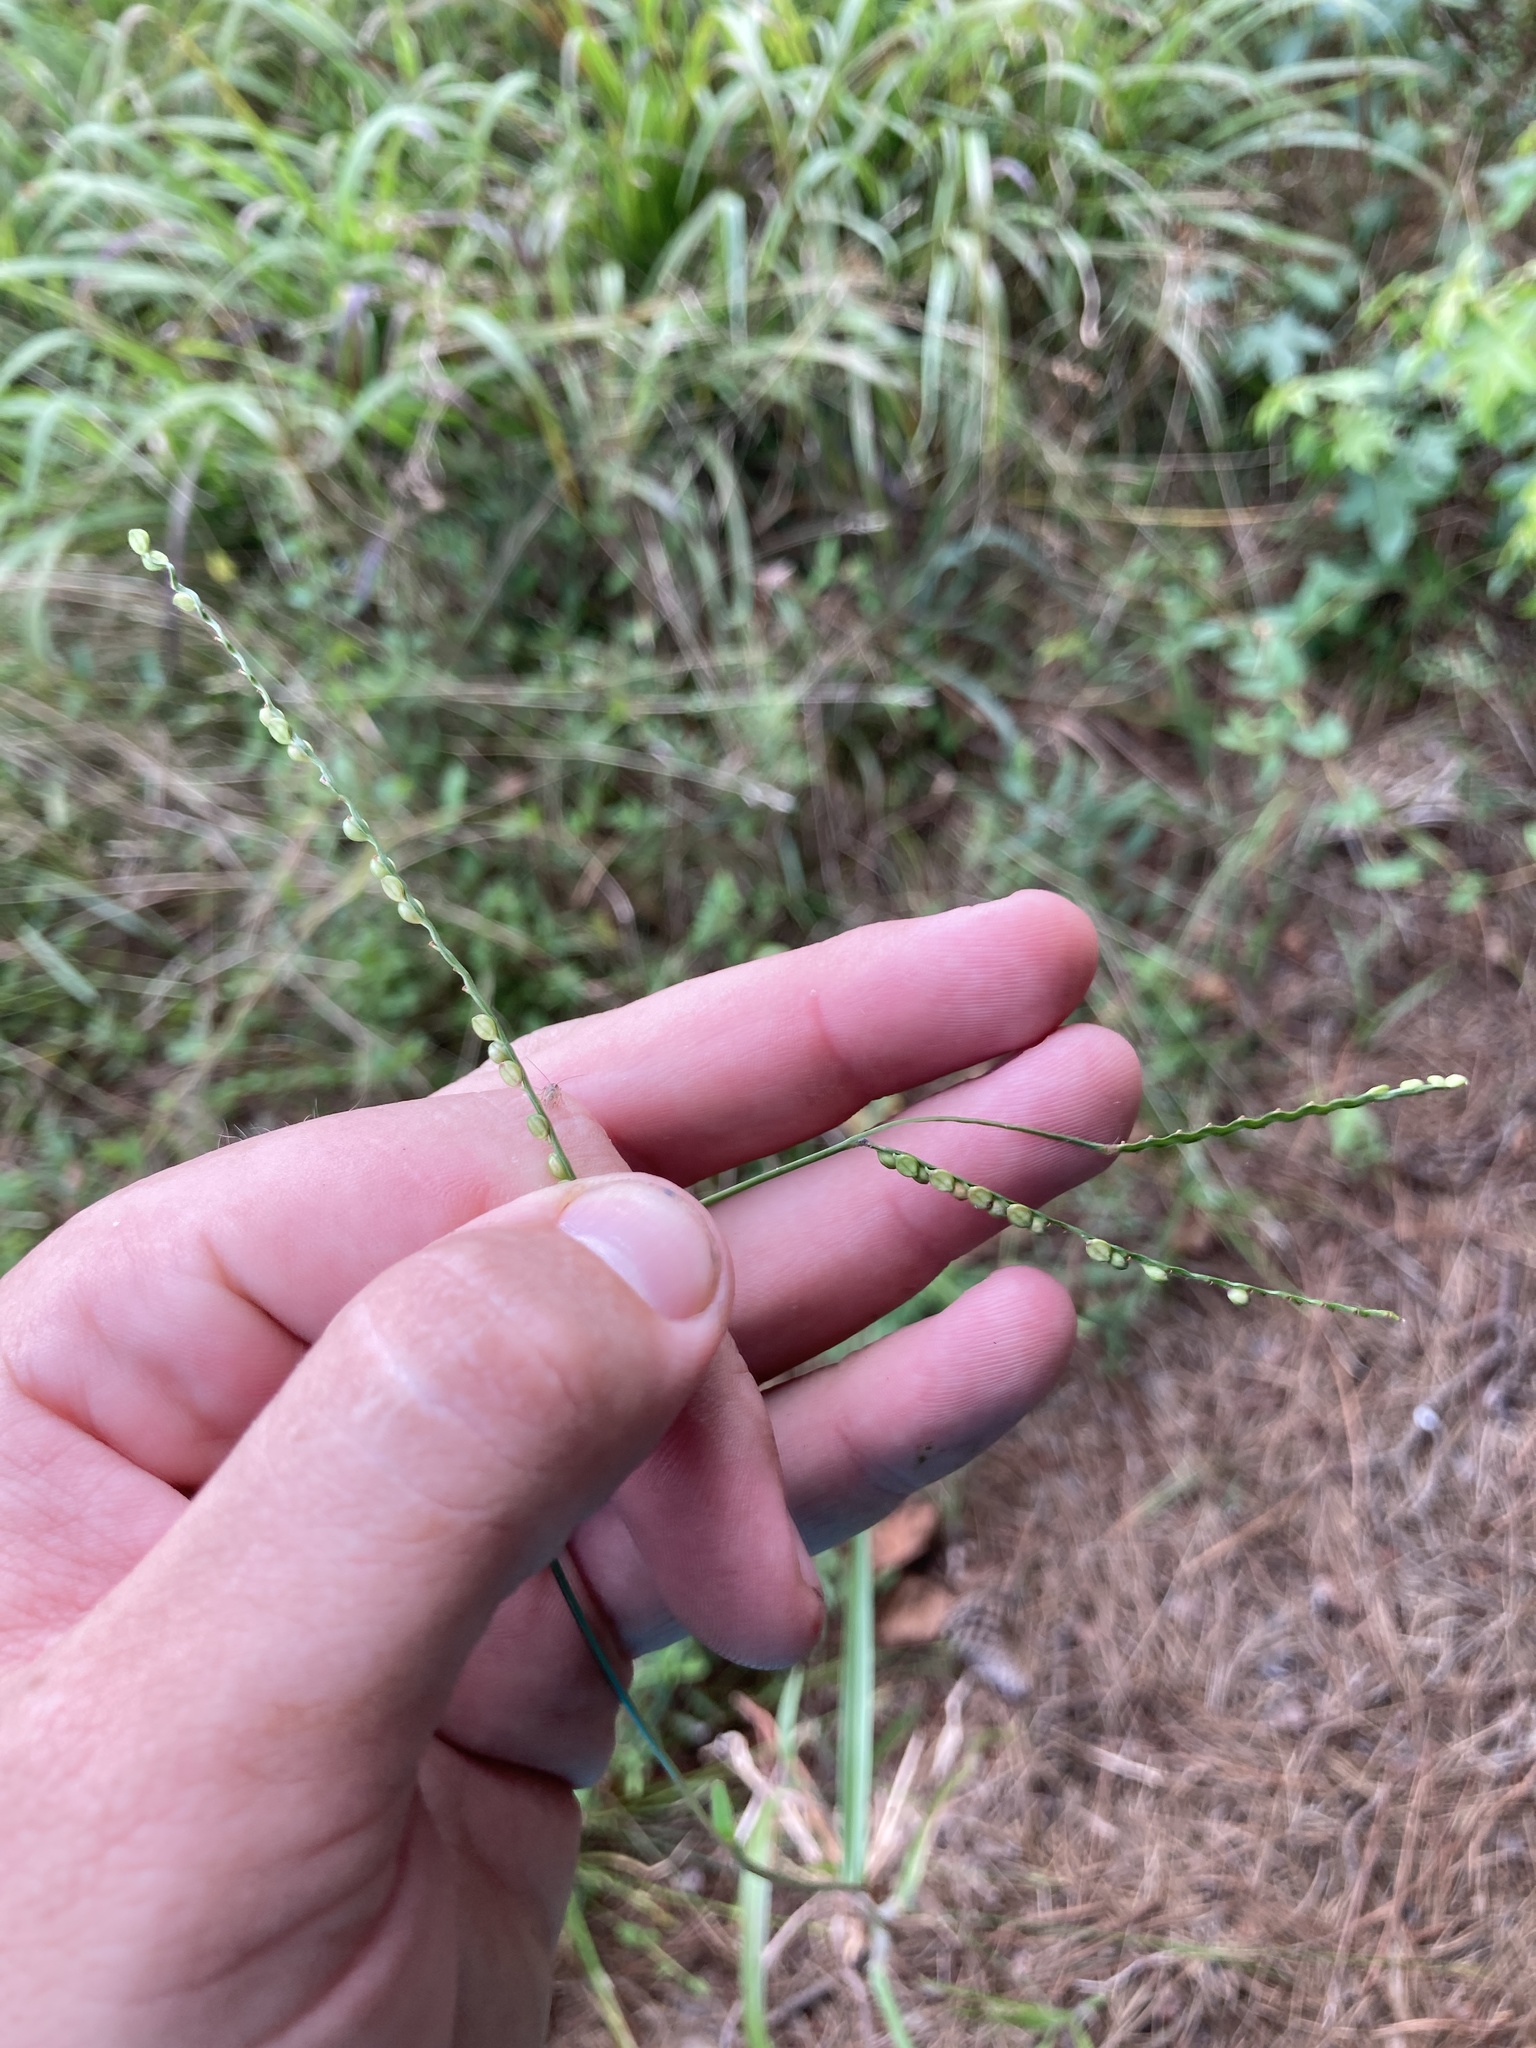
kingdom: Plantae
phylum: Tracheophyta
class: Liliopsida
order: Poales
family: Poaceae
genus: Paspalum
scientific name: Paspalum setaceum
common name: Slender paspalum
